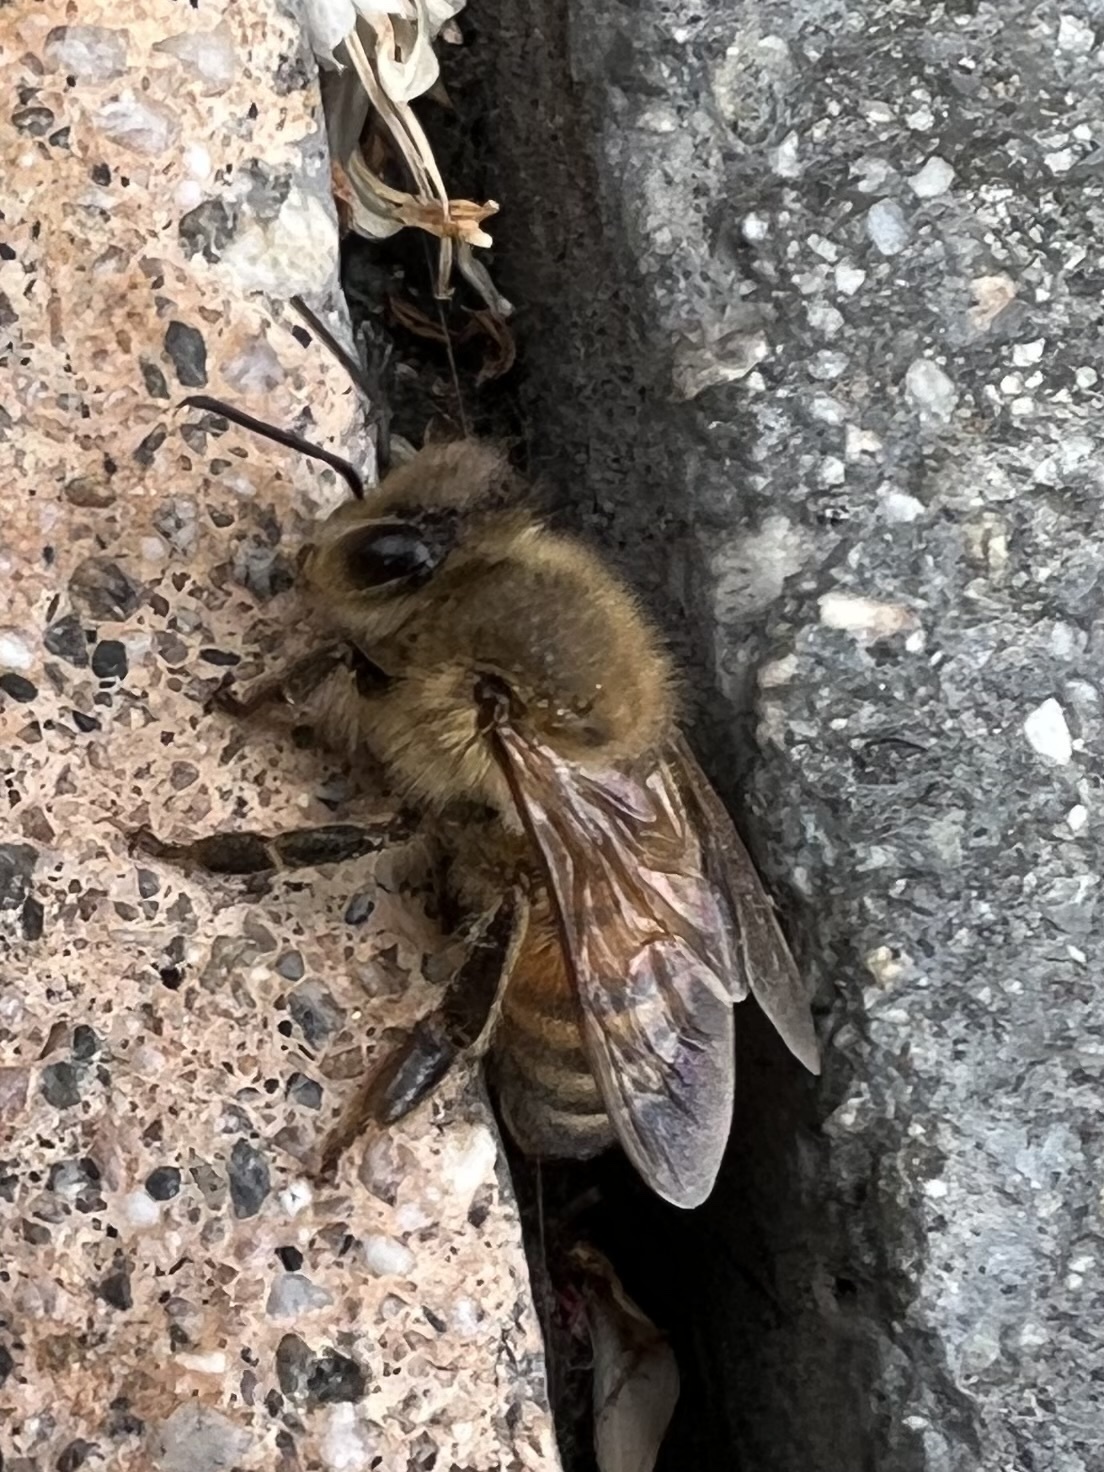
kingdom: Animalia
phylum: Arthropoda
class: Insecta
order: Hymenoptera
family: Apidae
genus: Apis
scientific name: Apis mellifera
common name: Honey bee
